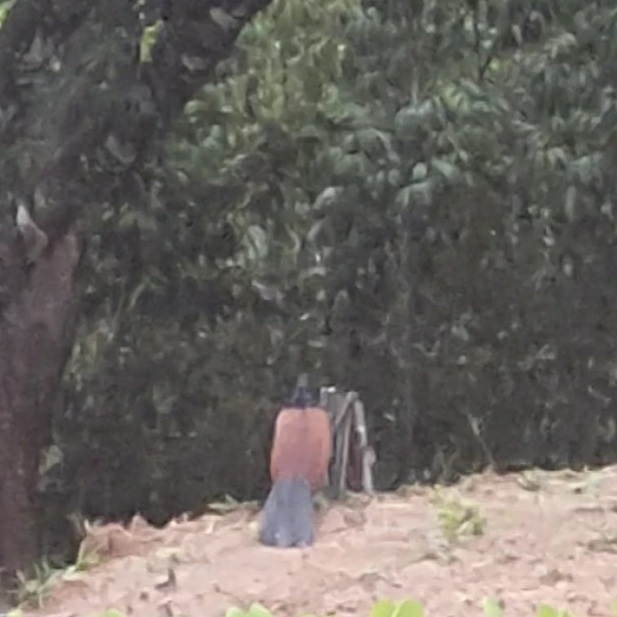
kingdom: Animalia
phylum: Chordata
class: Aves
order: Cuculiformes
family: Cuculidae
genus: Centropus
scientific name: Centropus sinensis
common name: Greater coucal
